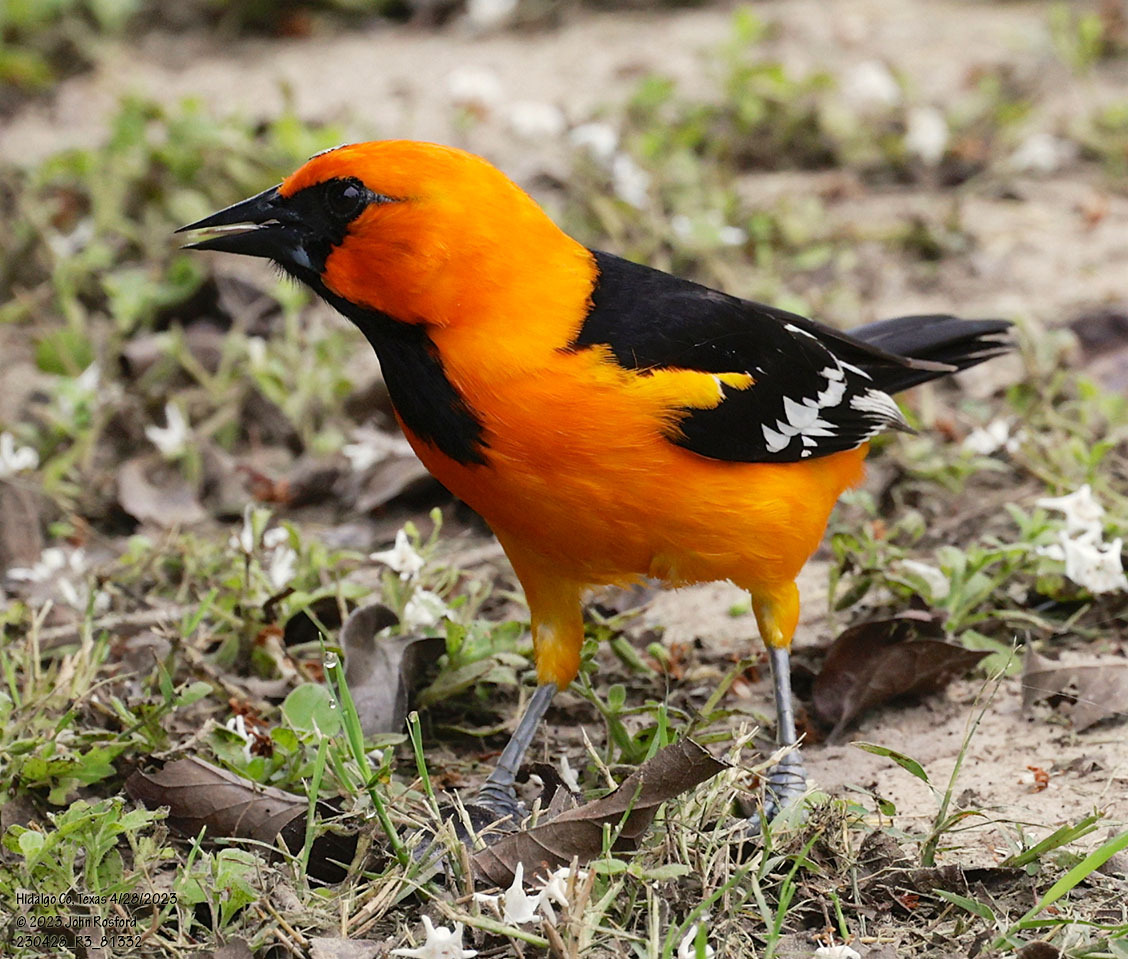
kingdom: Animalia
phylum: Chordata
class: Aves
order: Passeriformes
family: Icteridae
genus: Icterus
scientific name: Icterus gularis
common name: Altamira oriole
